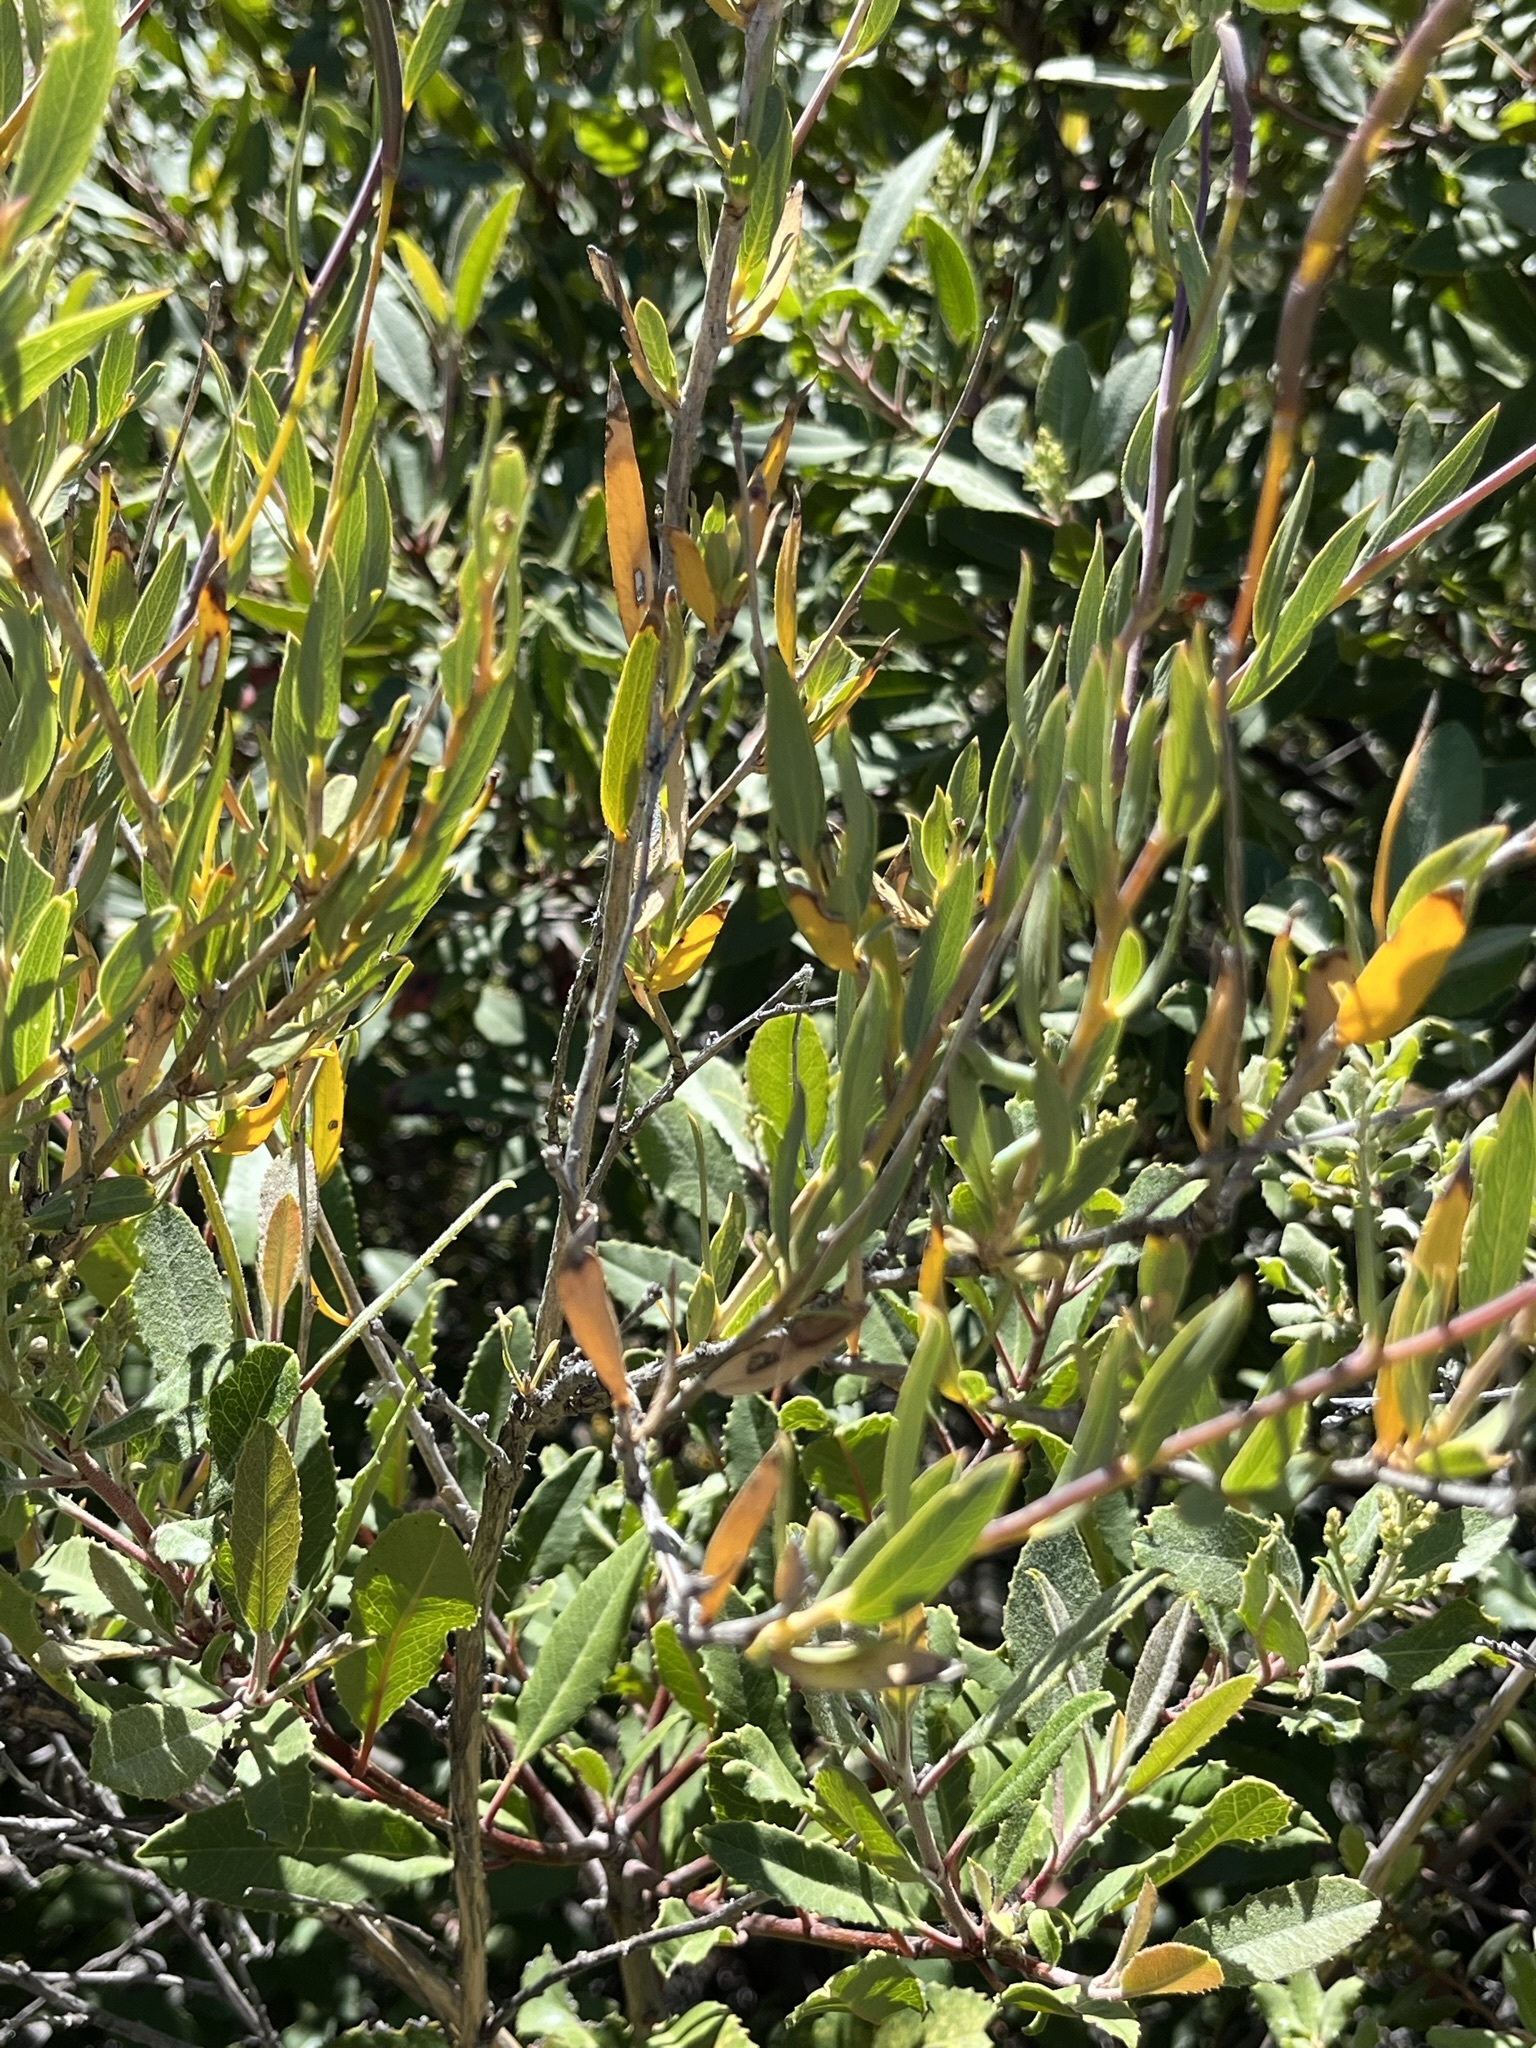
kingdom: Plantae
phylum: Tracheophyta
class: Magnoliopsida
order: Ranunculales
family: Papaveraceae
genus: Dendromecon
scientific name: Dendromecon rigida
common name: Tree poppy
